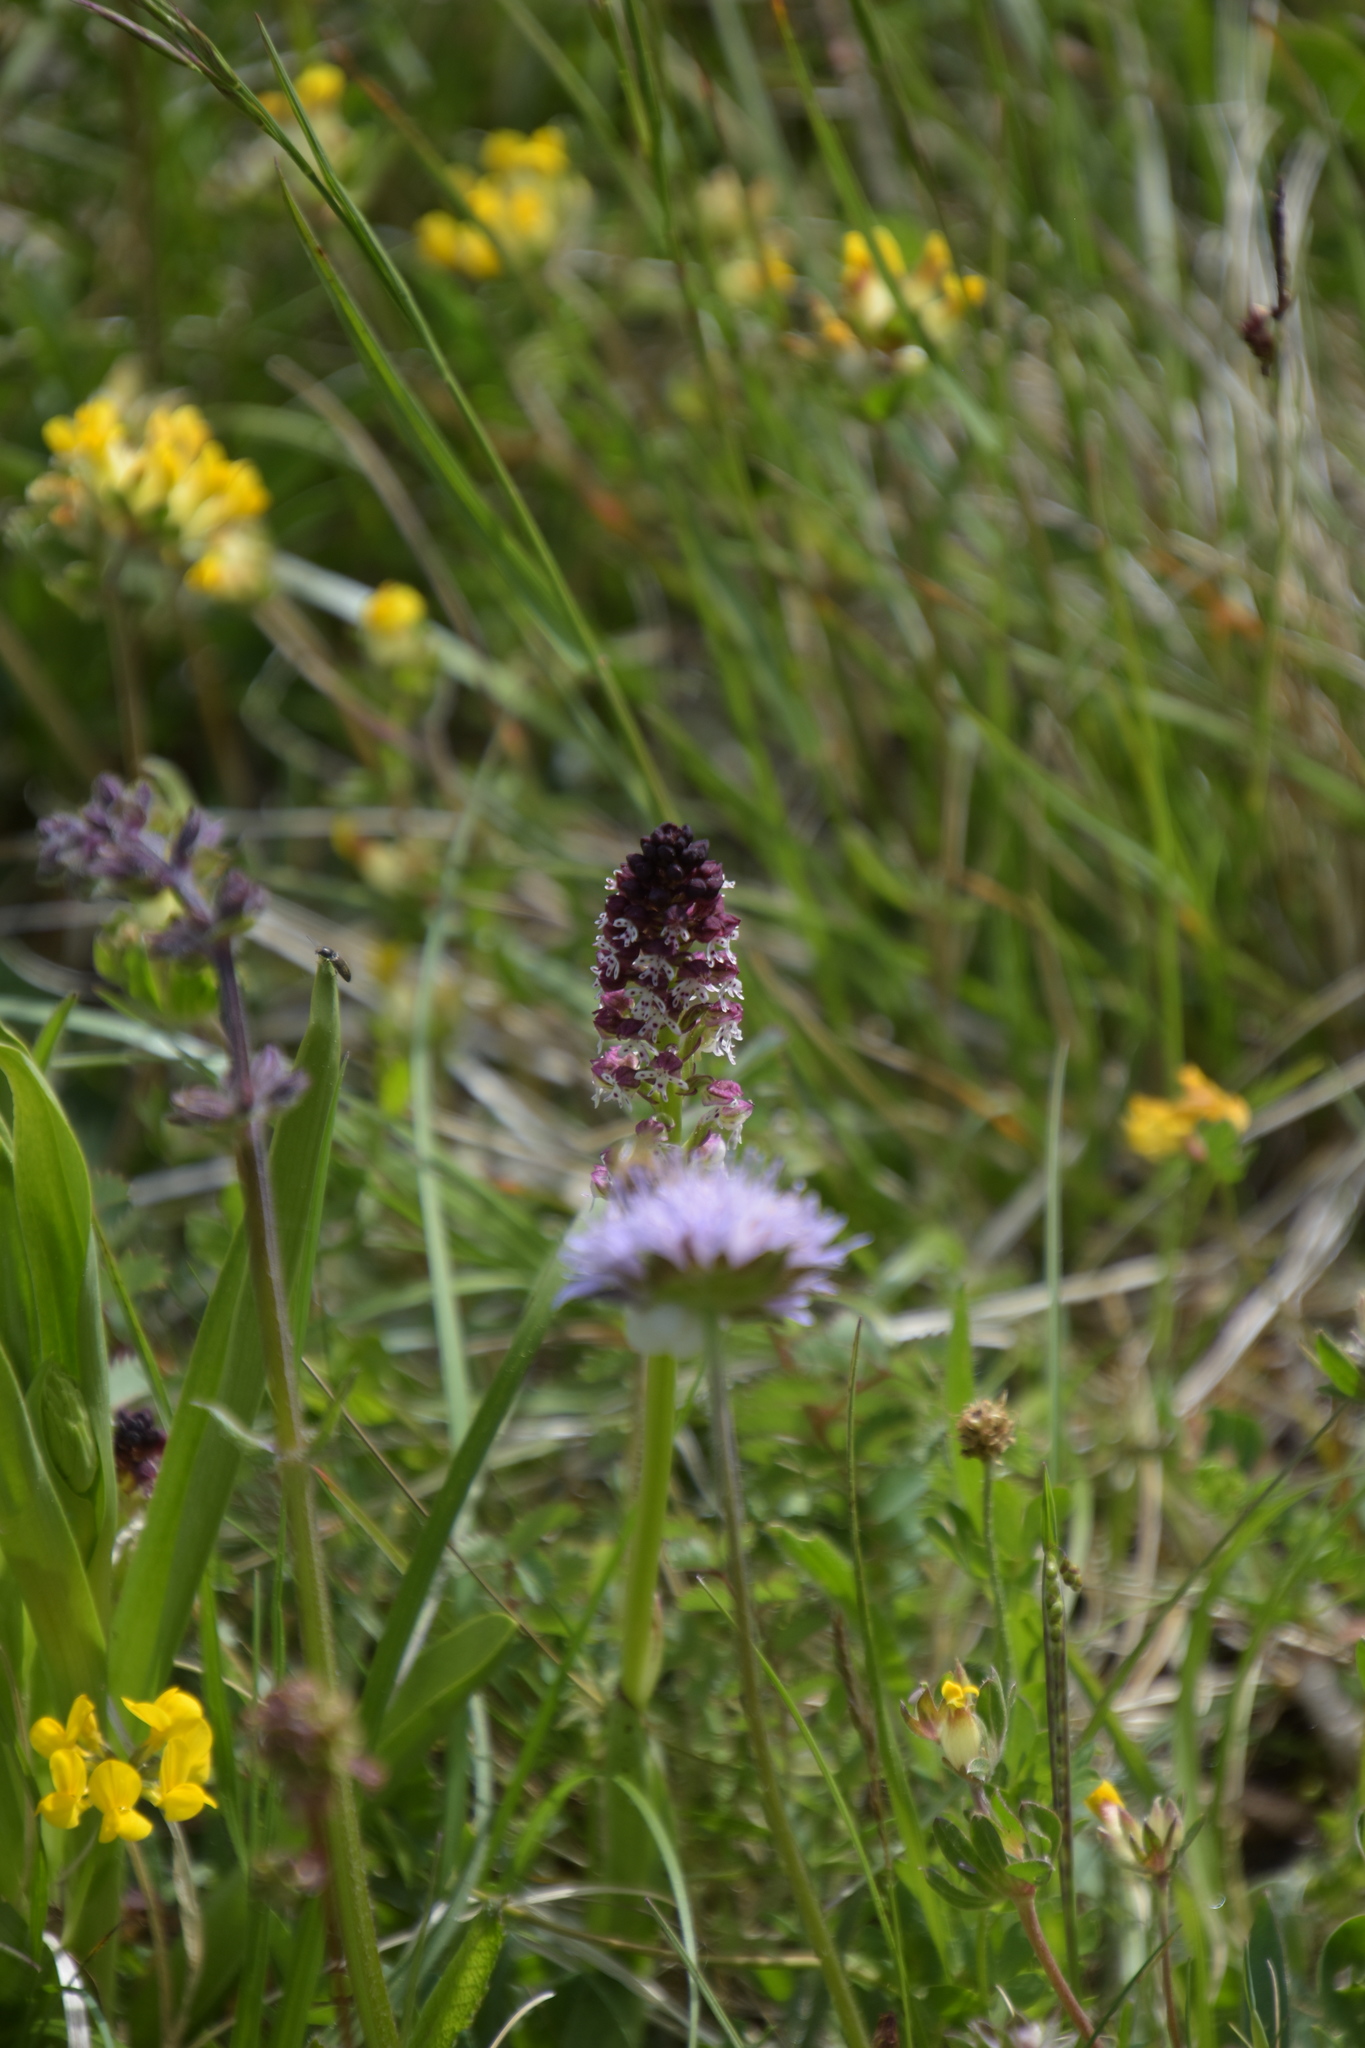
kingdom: Plantae
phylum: Tracheophyta
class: Liliopsida
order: Asparagales
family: Orchidaceae
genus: Neotinea
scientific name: Neotinea ustulata
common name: Burnt orchid
